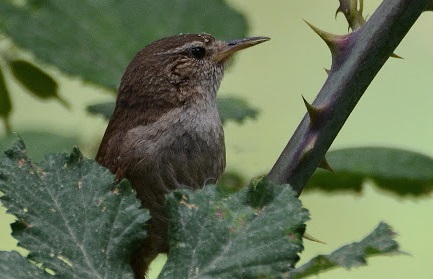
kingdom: Animalia
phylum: Chordata
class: Aves
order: Passeriformes
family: Troglodytidae
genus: Troglodytes
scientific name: Troglodytes troglodytes
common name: Eurasian wren
